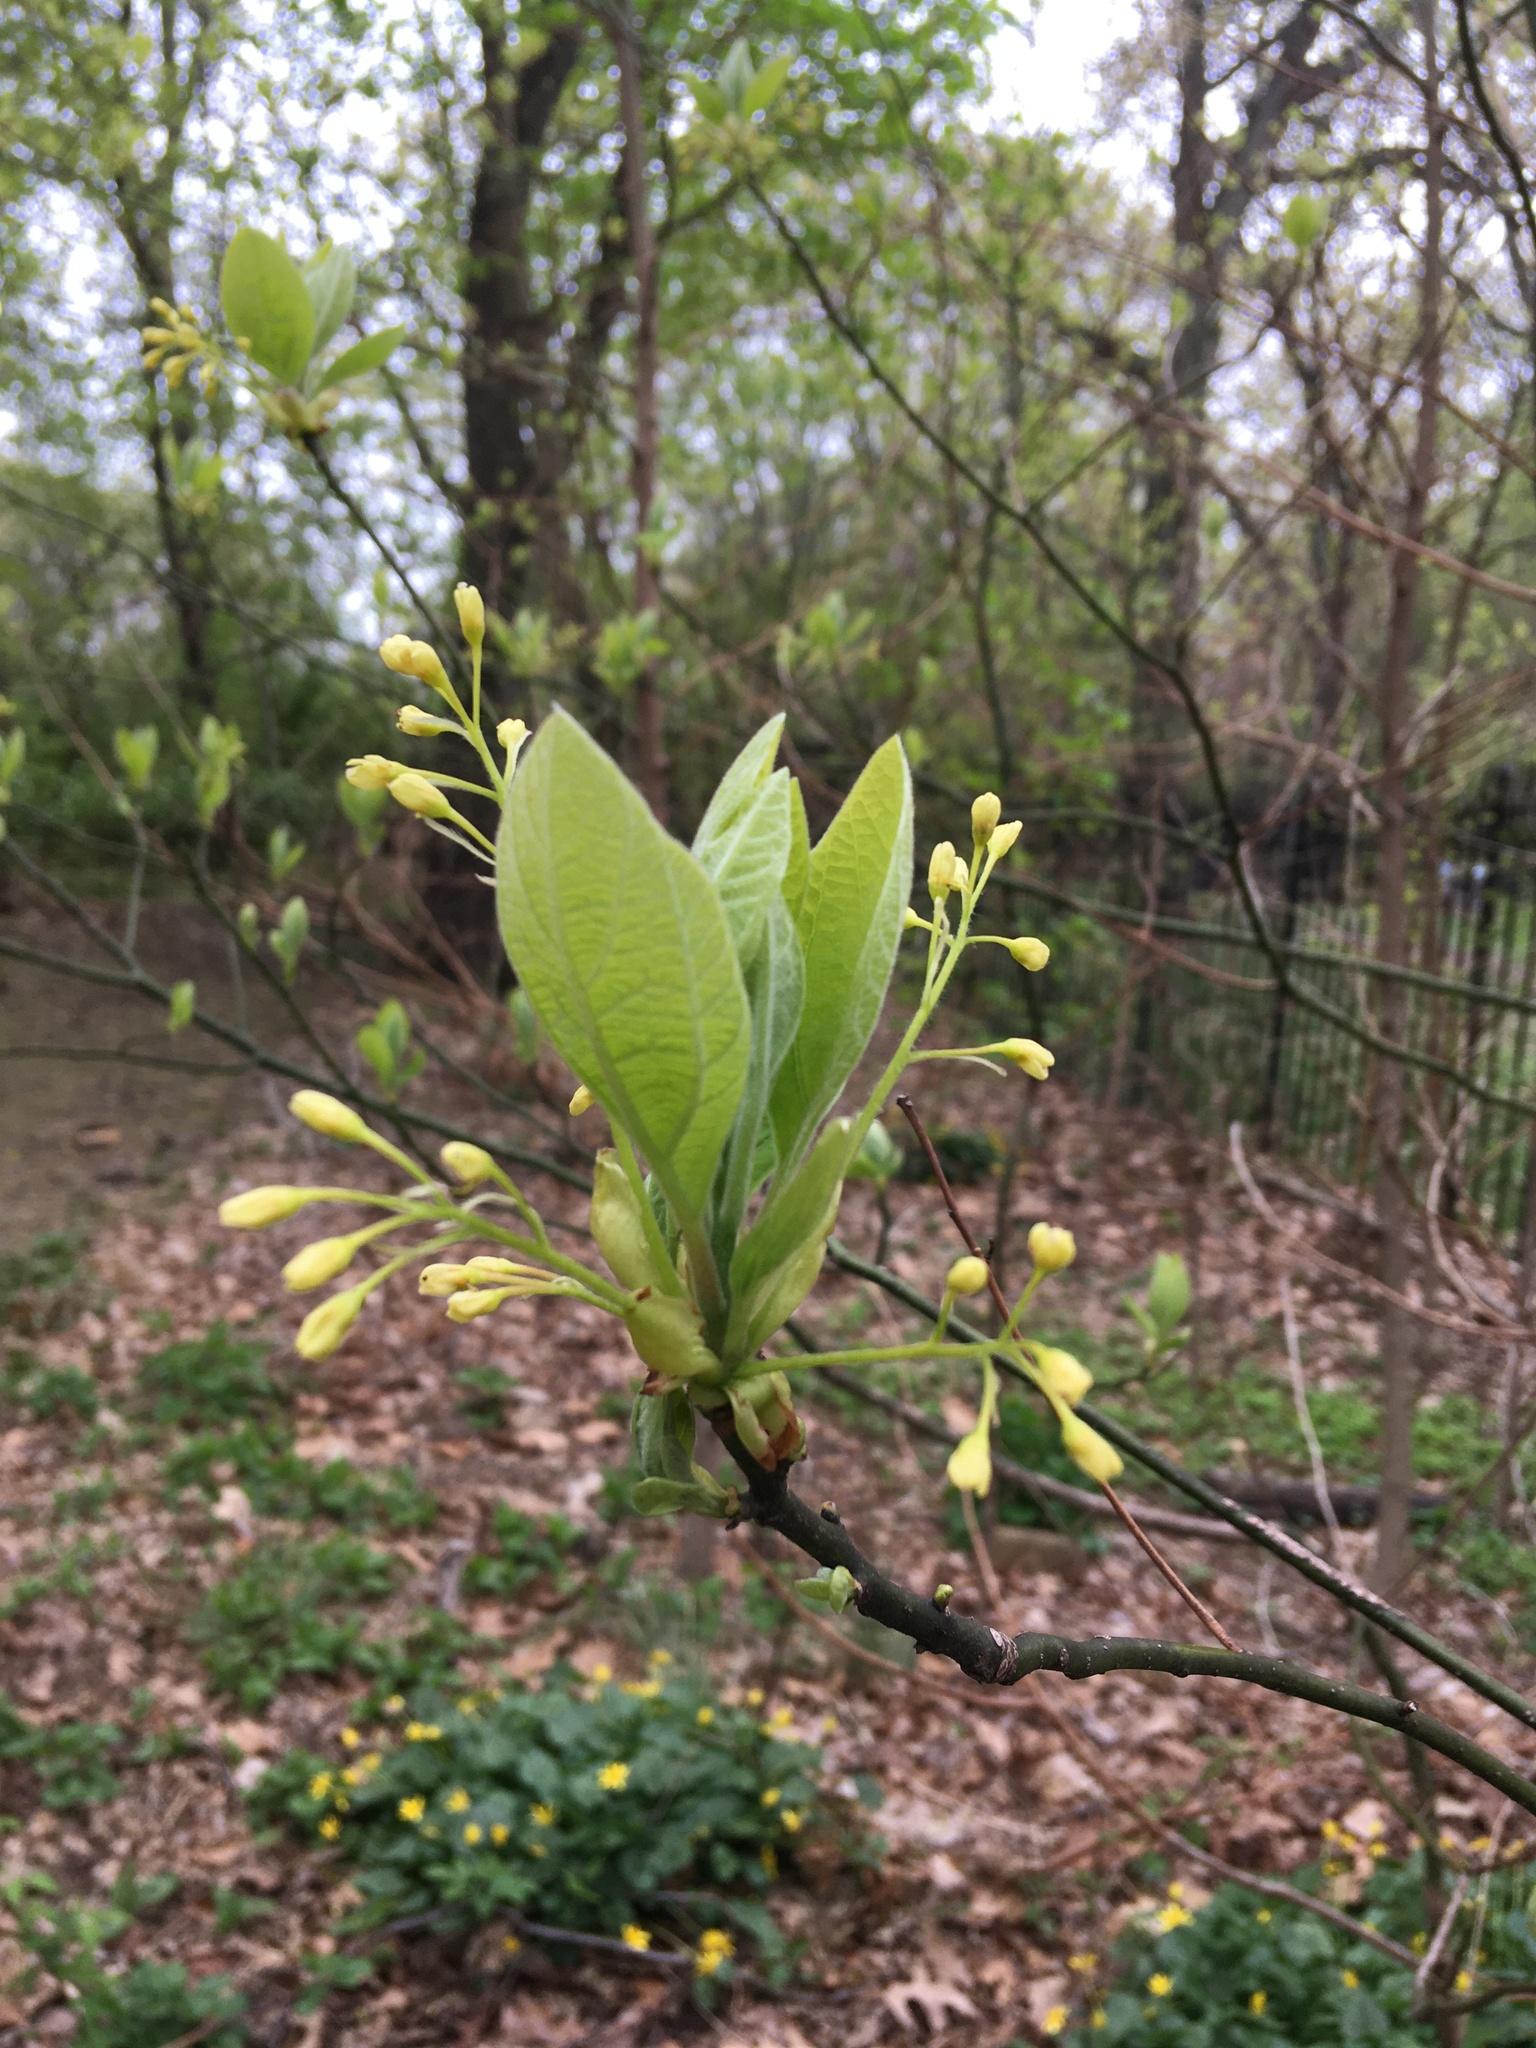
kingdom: Plantae
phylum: Tracheophyta
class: Magnoliopsida
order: Laurales
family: Lauraceae
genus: Sassafras
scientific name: Sassafras albidum
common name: Sassafras
